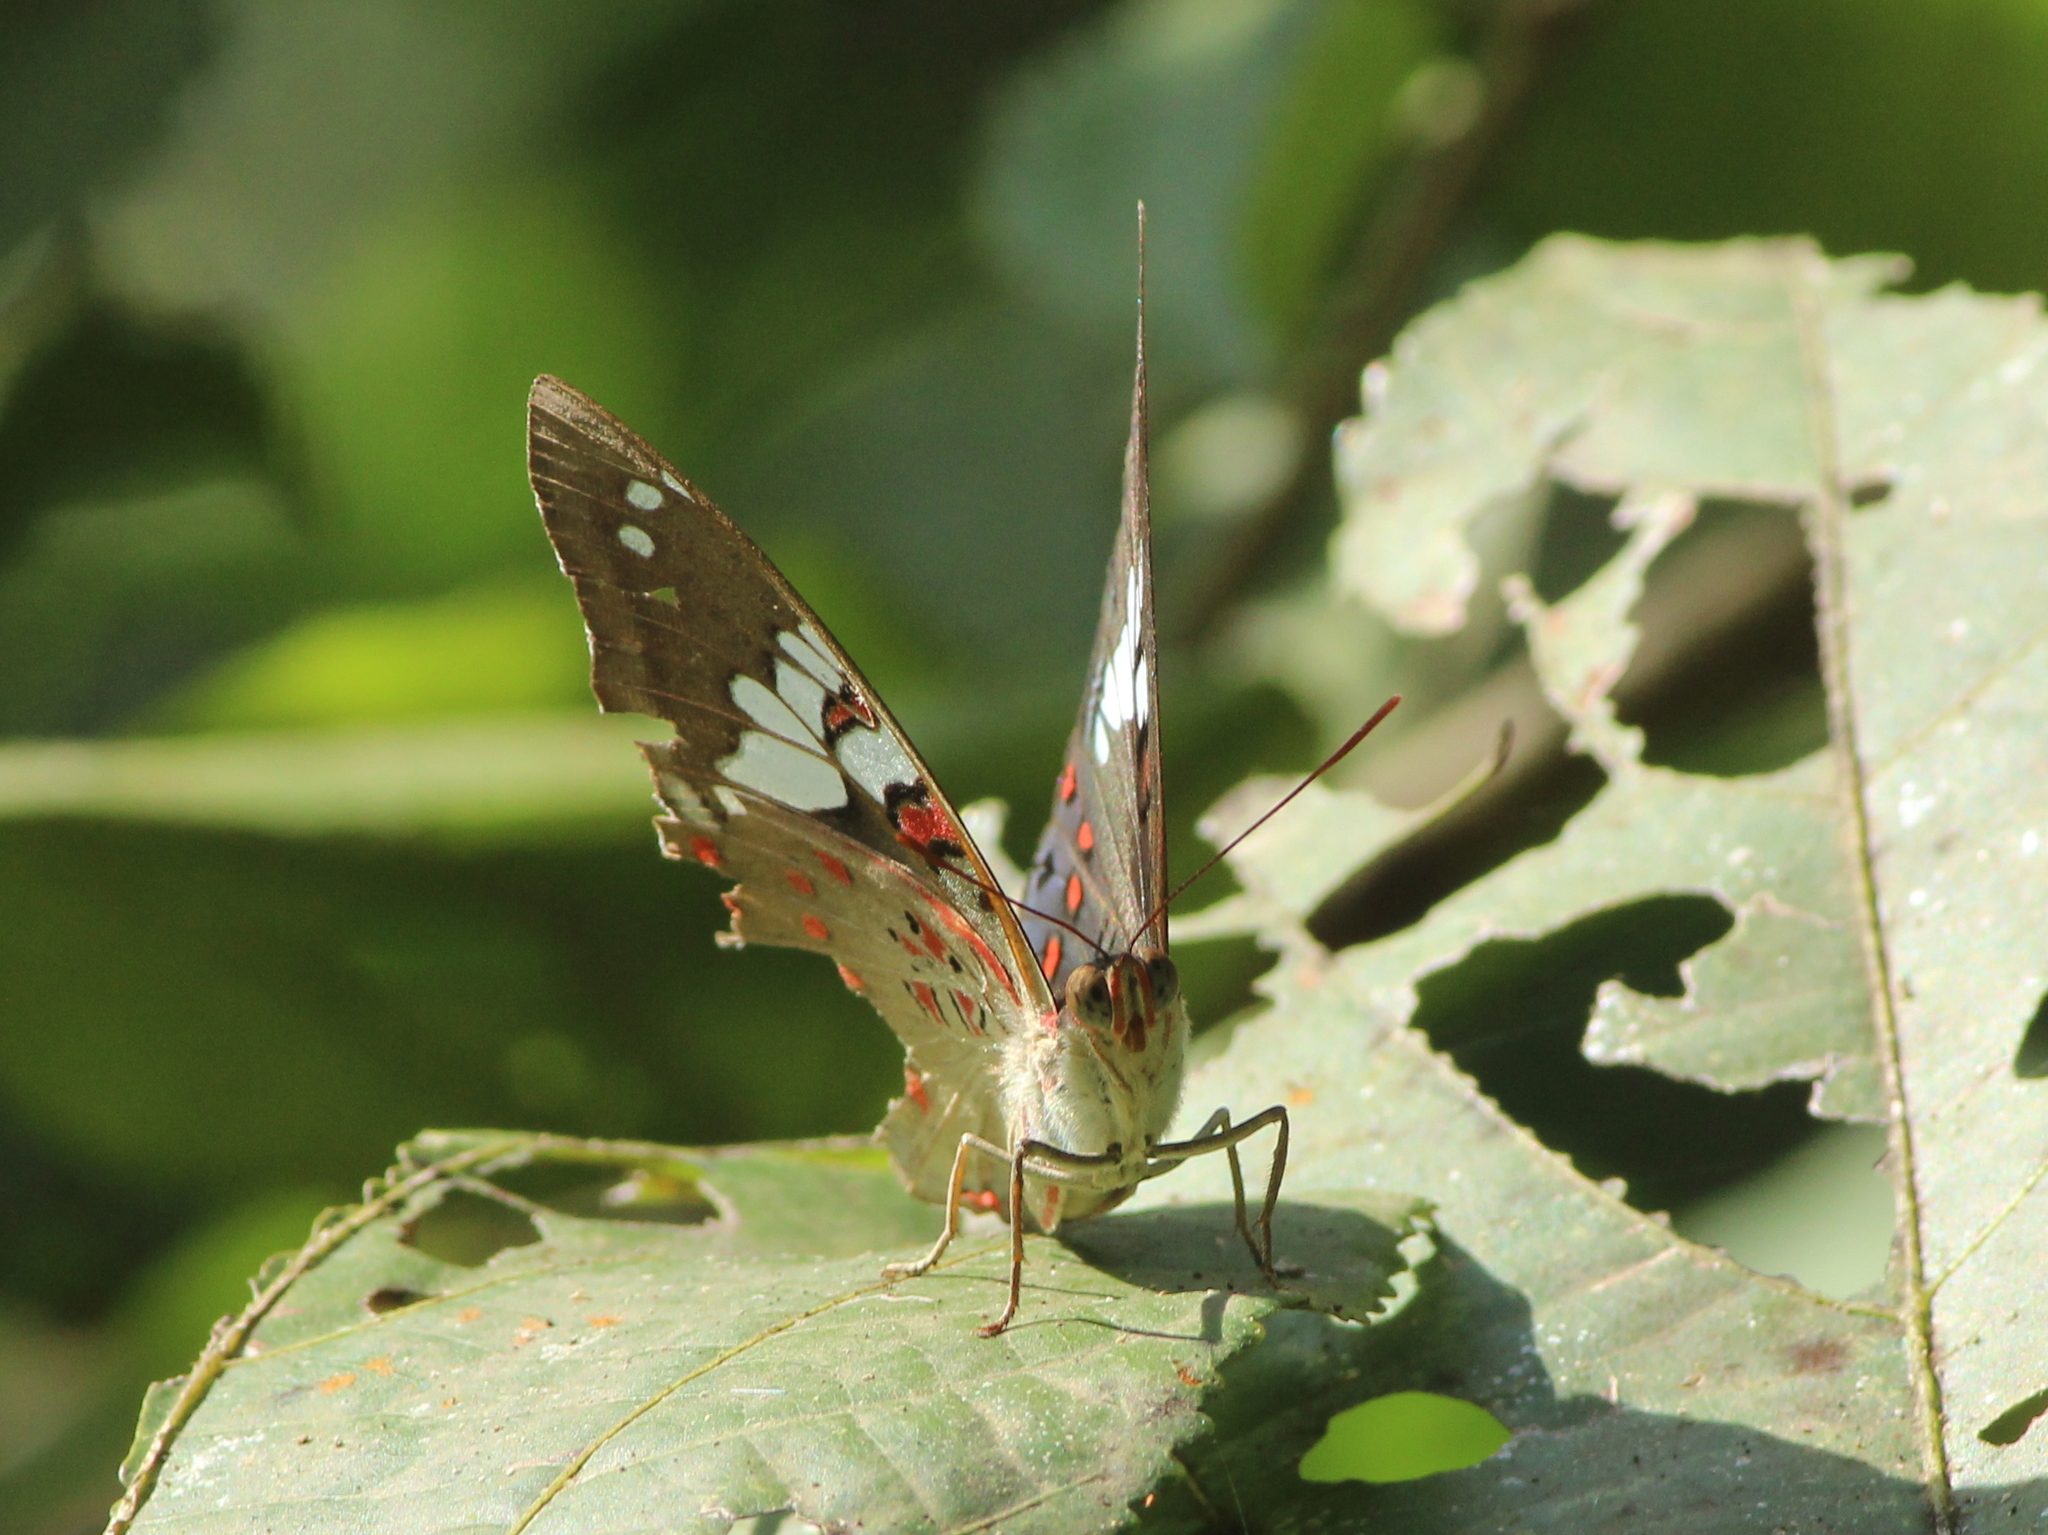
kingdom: Animalia
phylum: Arthropoda
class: Insecta
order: Lepidoptera
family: Nymphalidae
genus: Euthalia
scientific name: Euthalia lubentina
